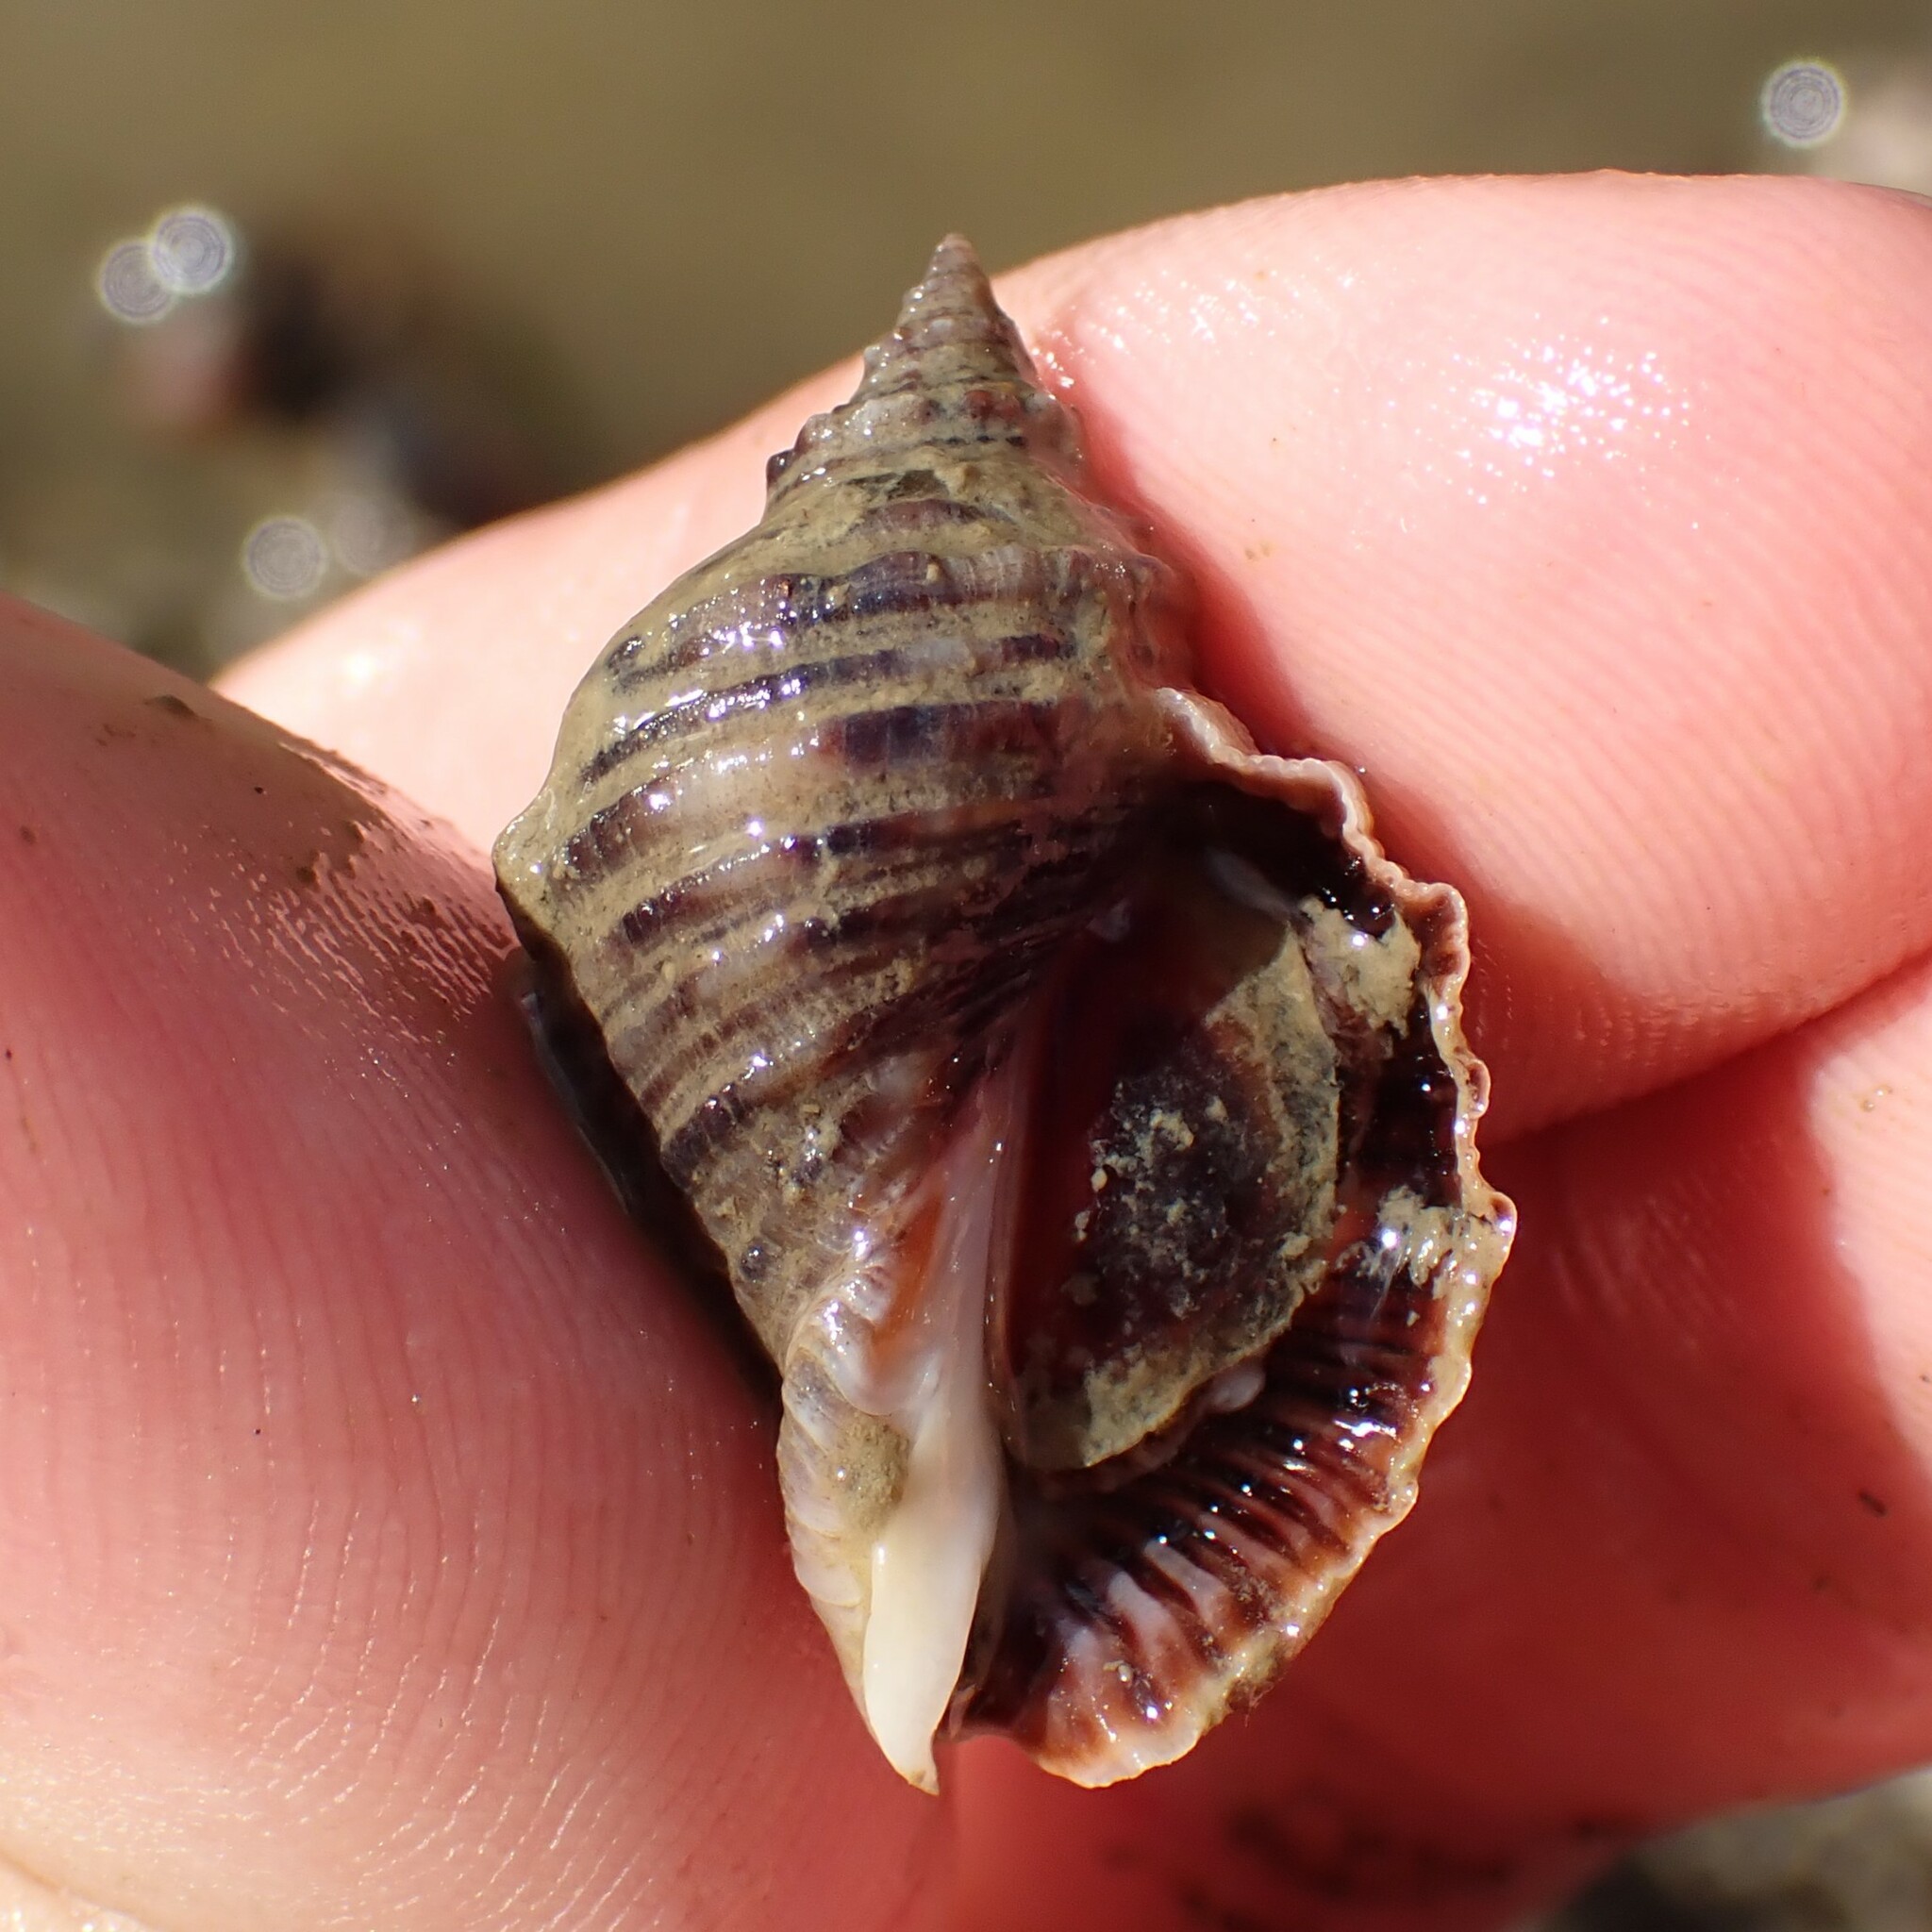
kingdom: Animalia
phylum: Mollusca
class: Gastropoda
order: Neogastropoda
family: Muricidae
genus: Dicathais
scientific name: Dicathais orbita
